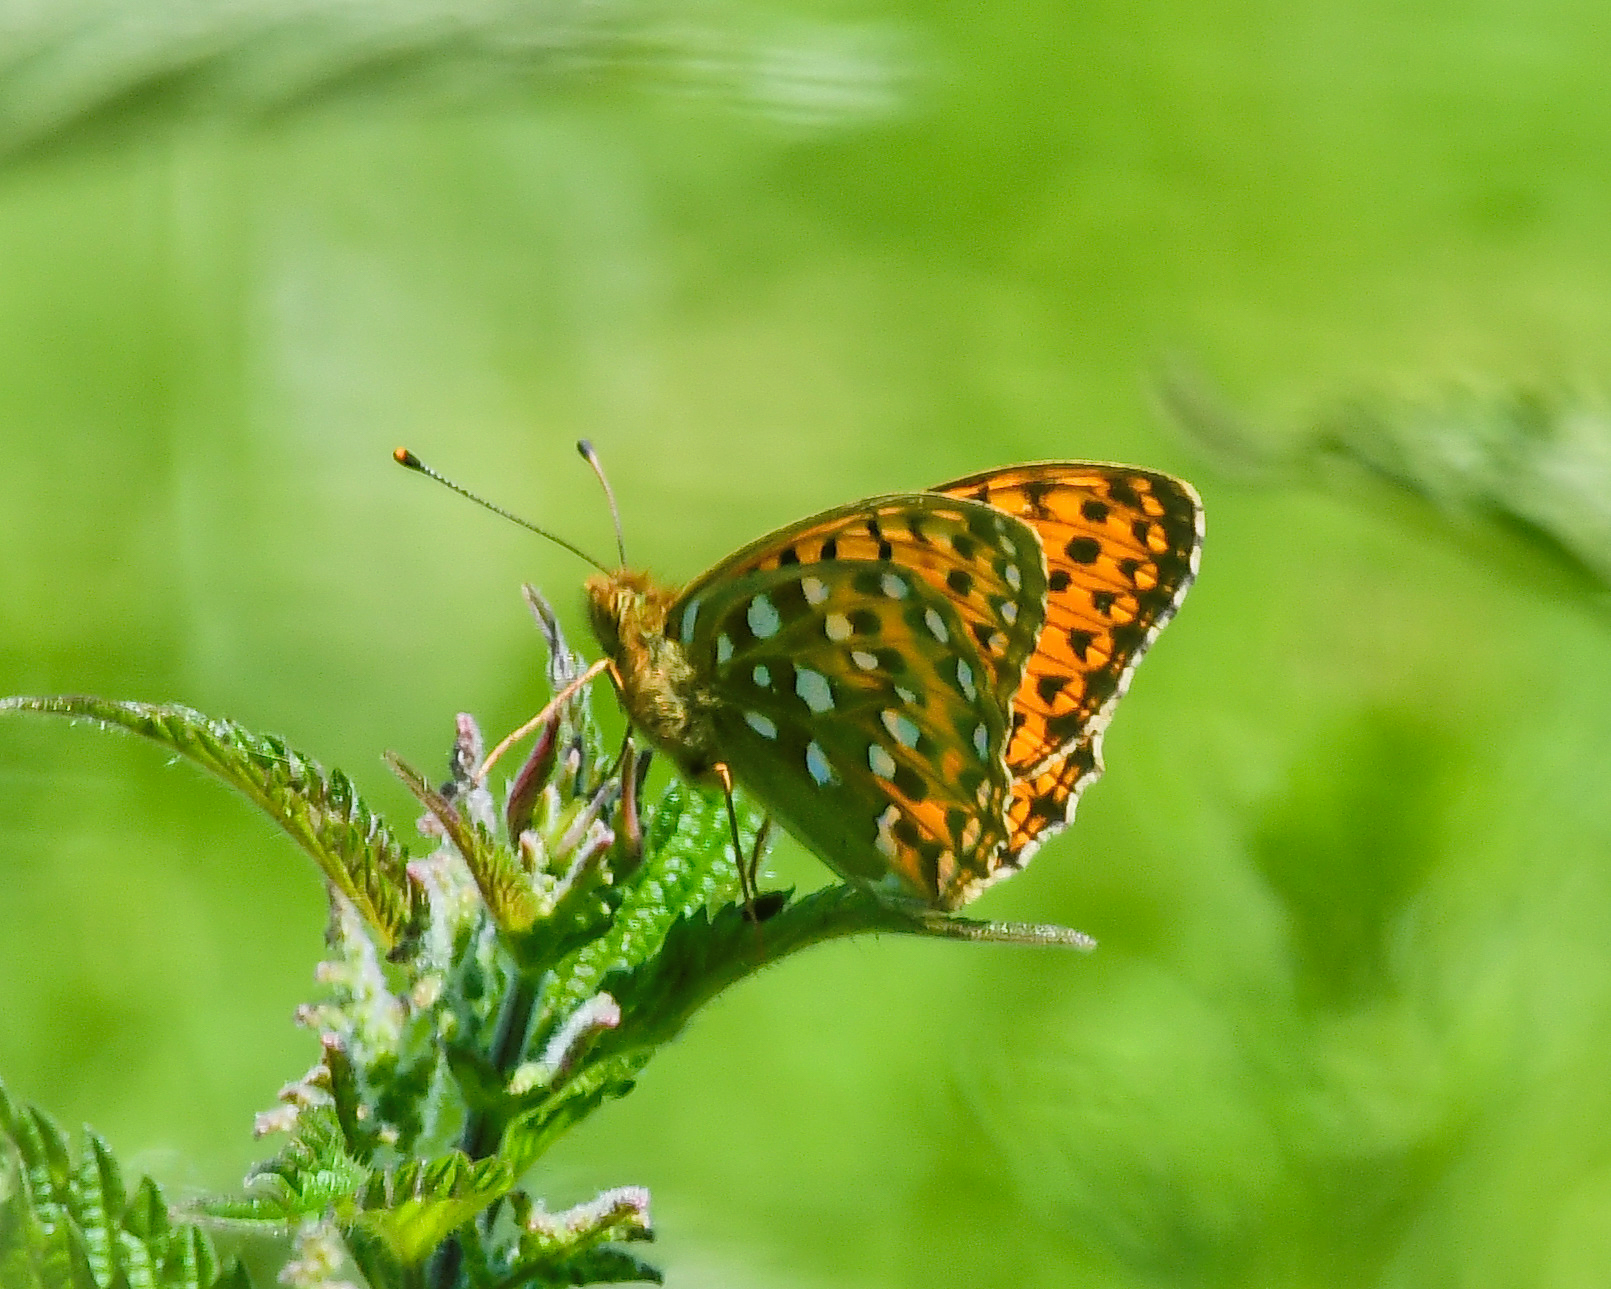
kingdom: Animalia
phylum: Arthropoda
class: Insecta
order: Lepidoptera
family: Nymphalidae
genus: Speyeria
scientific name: Speyeria aglaja
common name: Dark green fritillary
